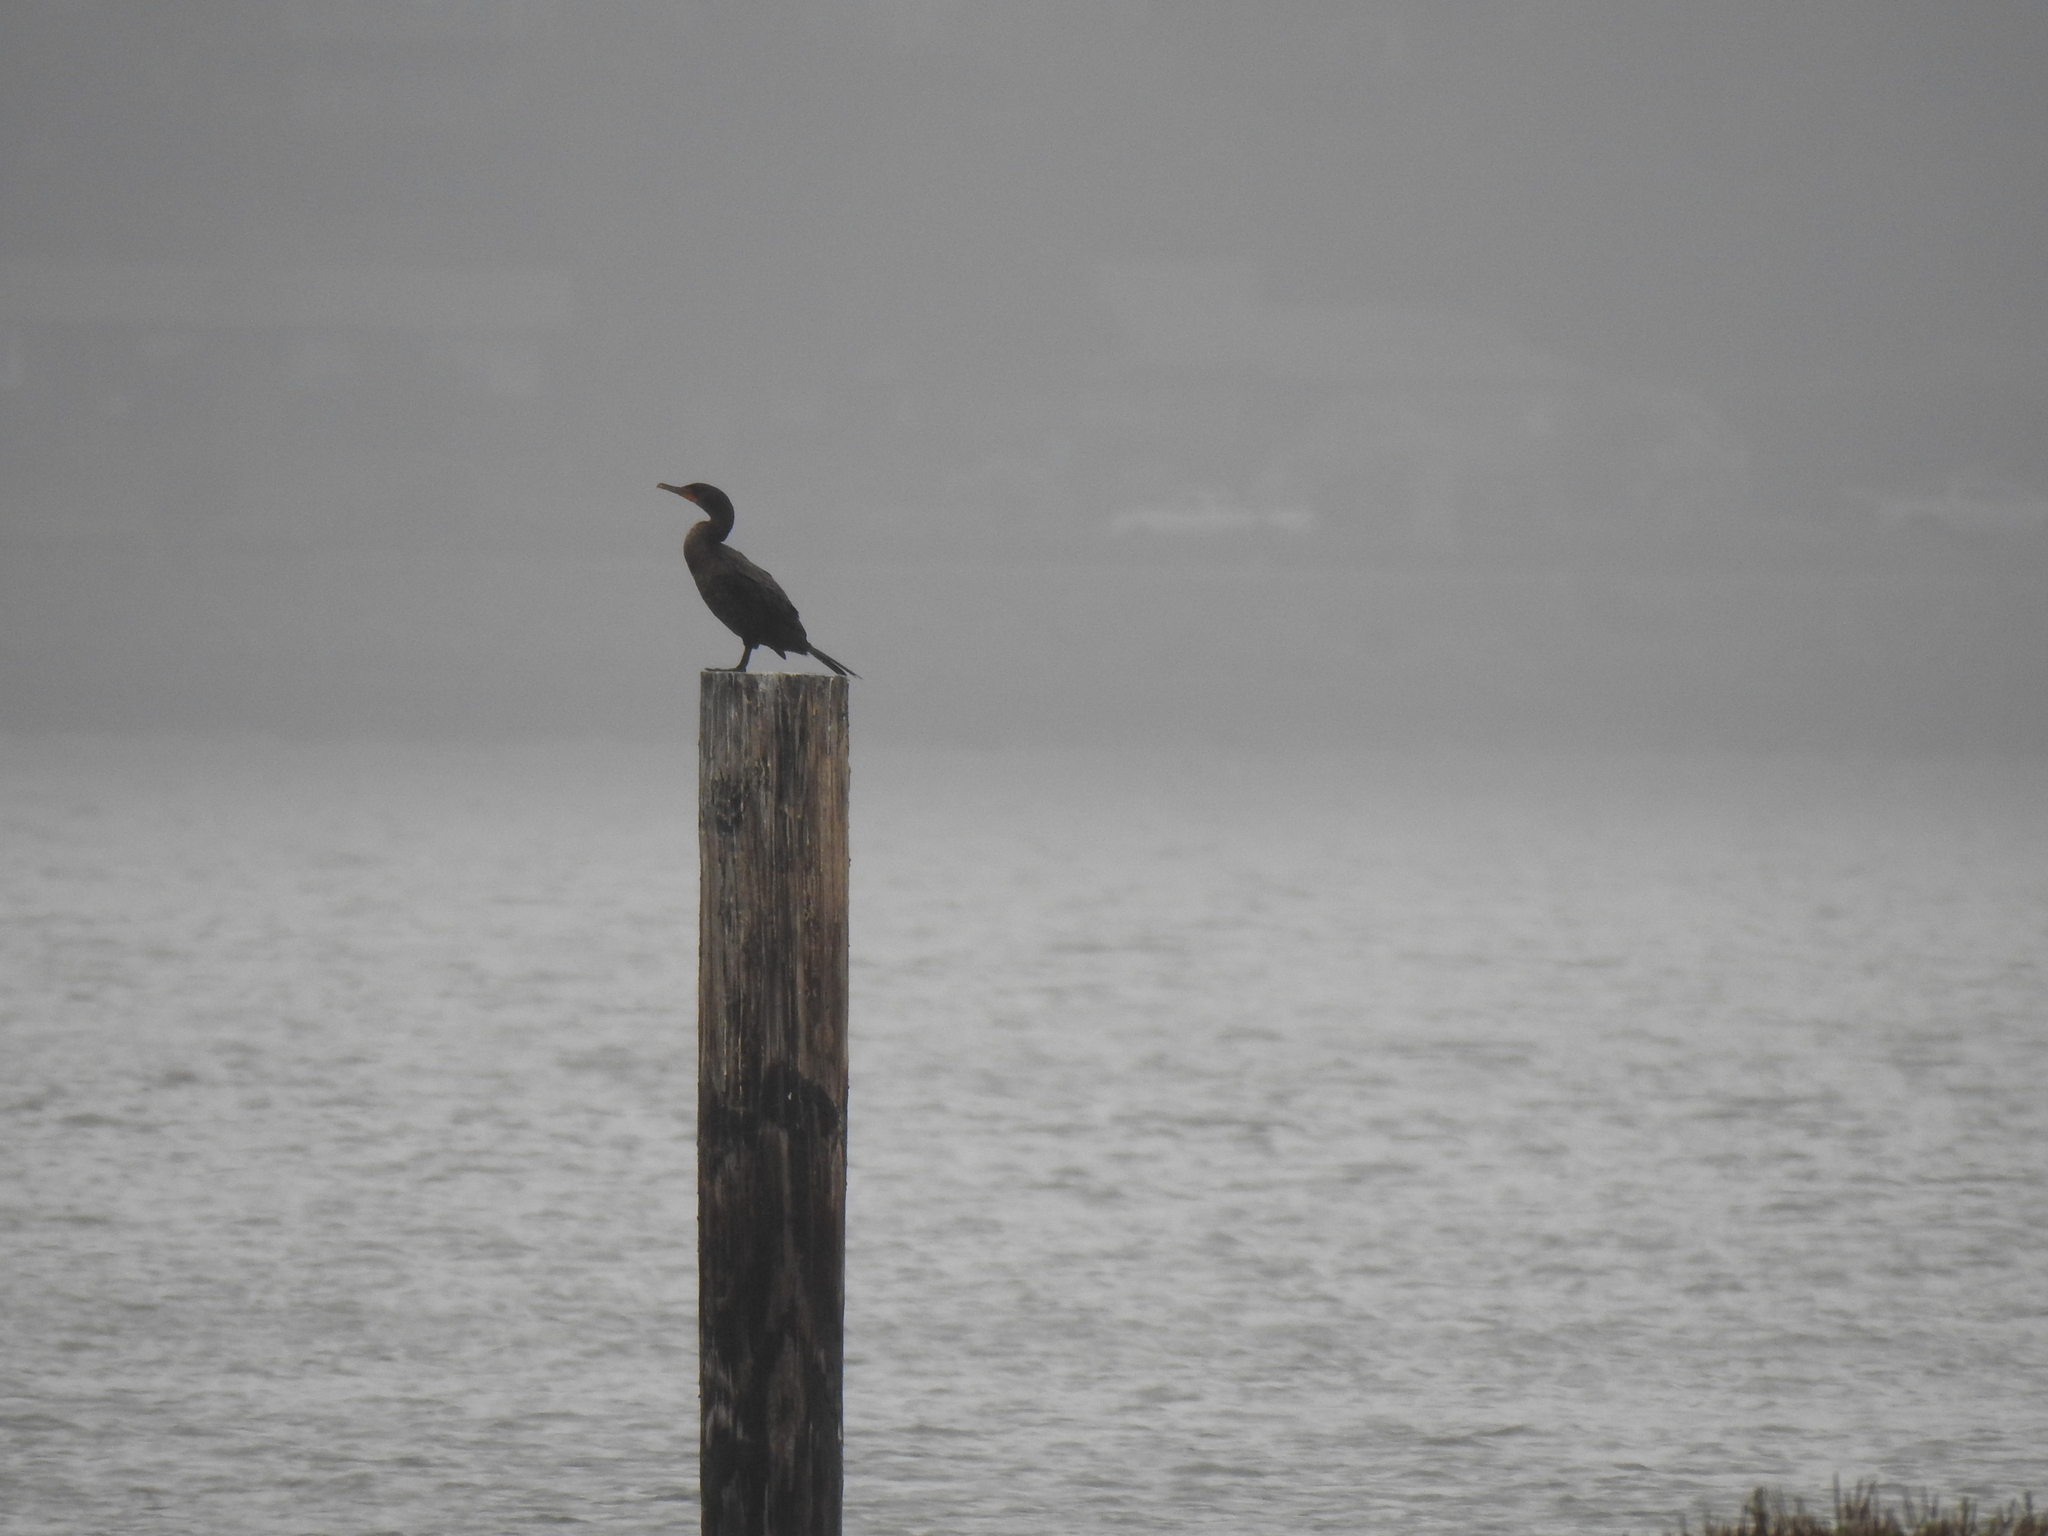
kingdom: Animalia
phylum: Chordata
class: Aves
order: Suliformes
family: Phalacrocoracidae
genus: Phalacrocorax
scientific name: Phalacrocorax auritus
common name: Double-crested cormorant
